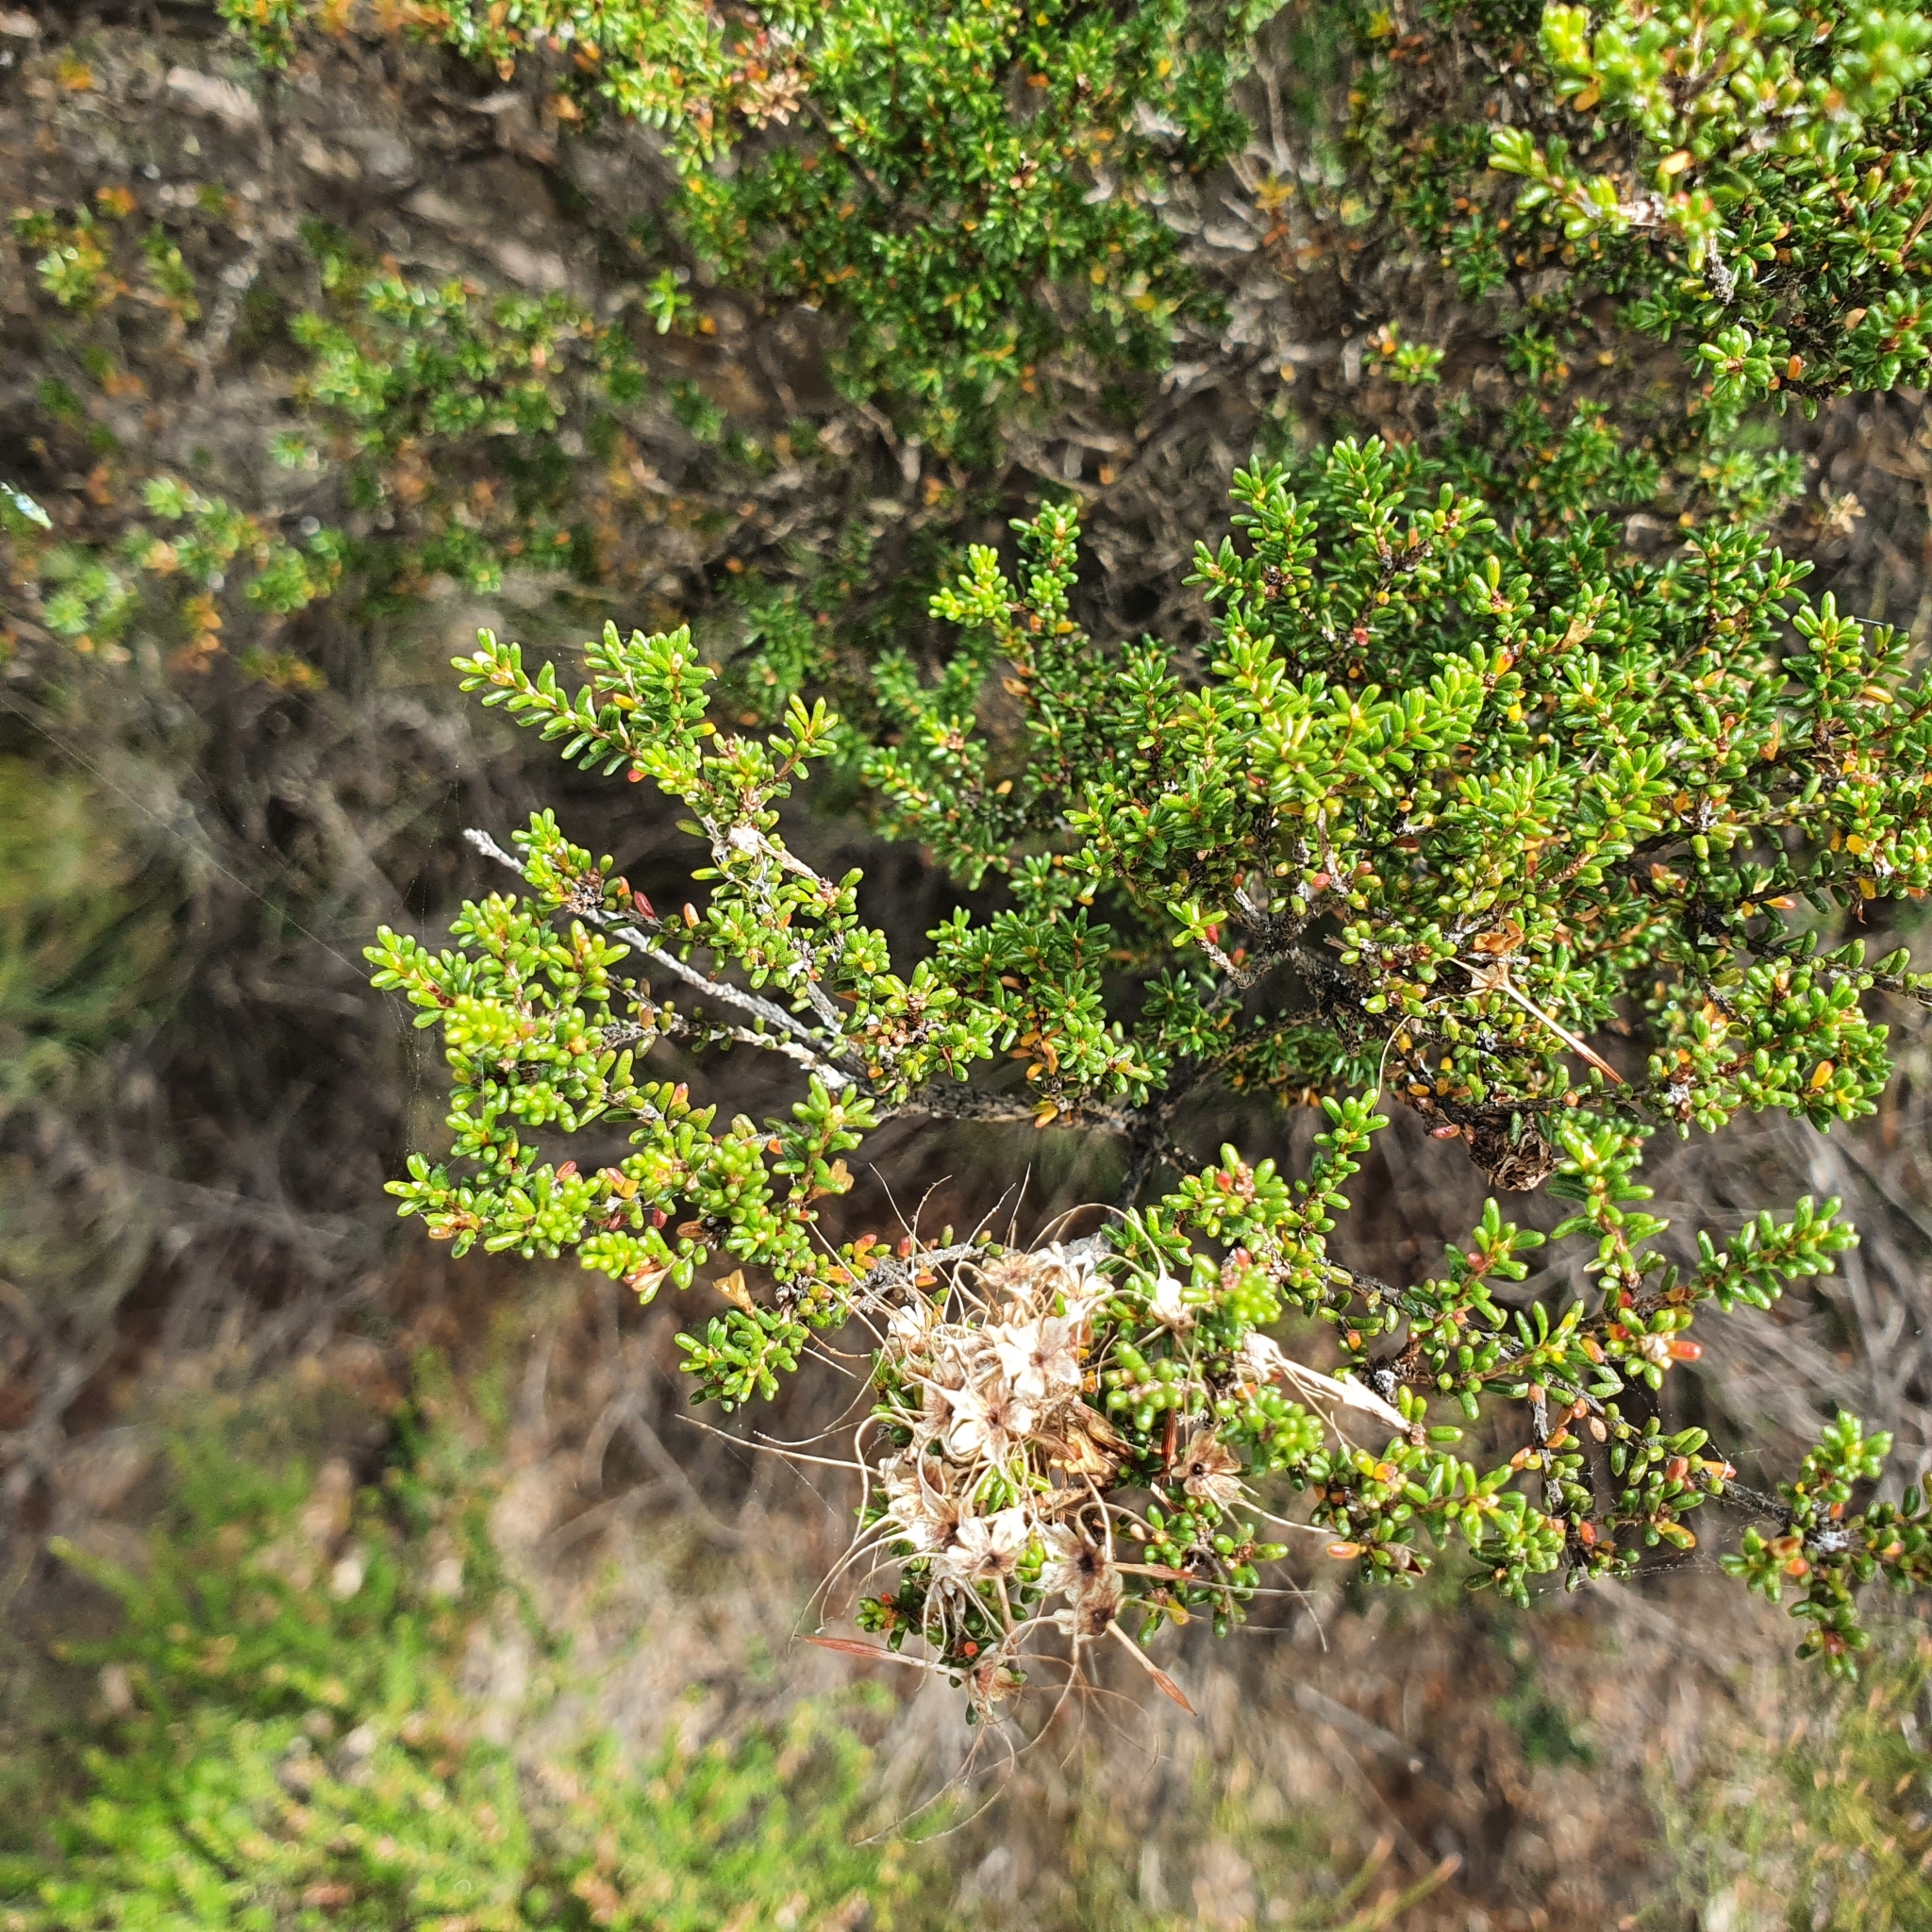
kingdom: Plantae
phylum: Tracheophyta
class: Magnoliopsida
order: Myrtales
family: Myrtaceae
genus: Calytrix
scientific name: Calytrix tetragona
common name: Common fringe myrtle
